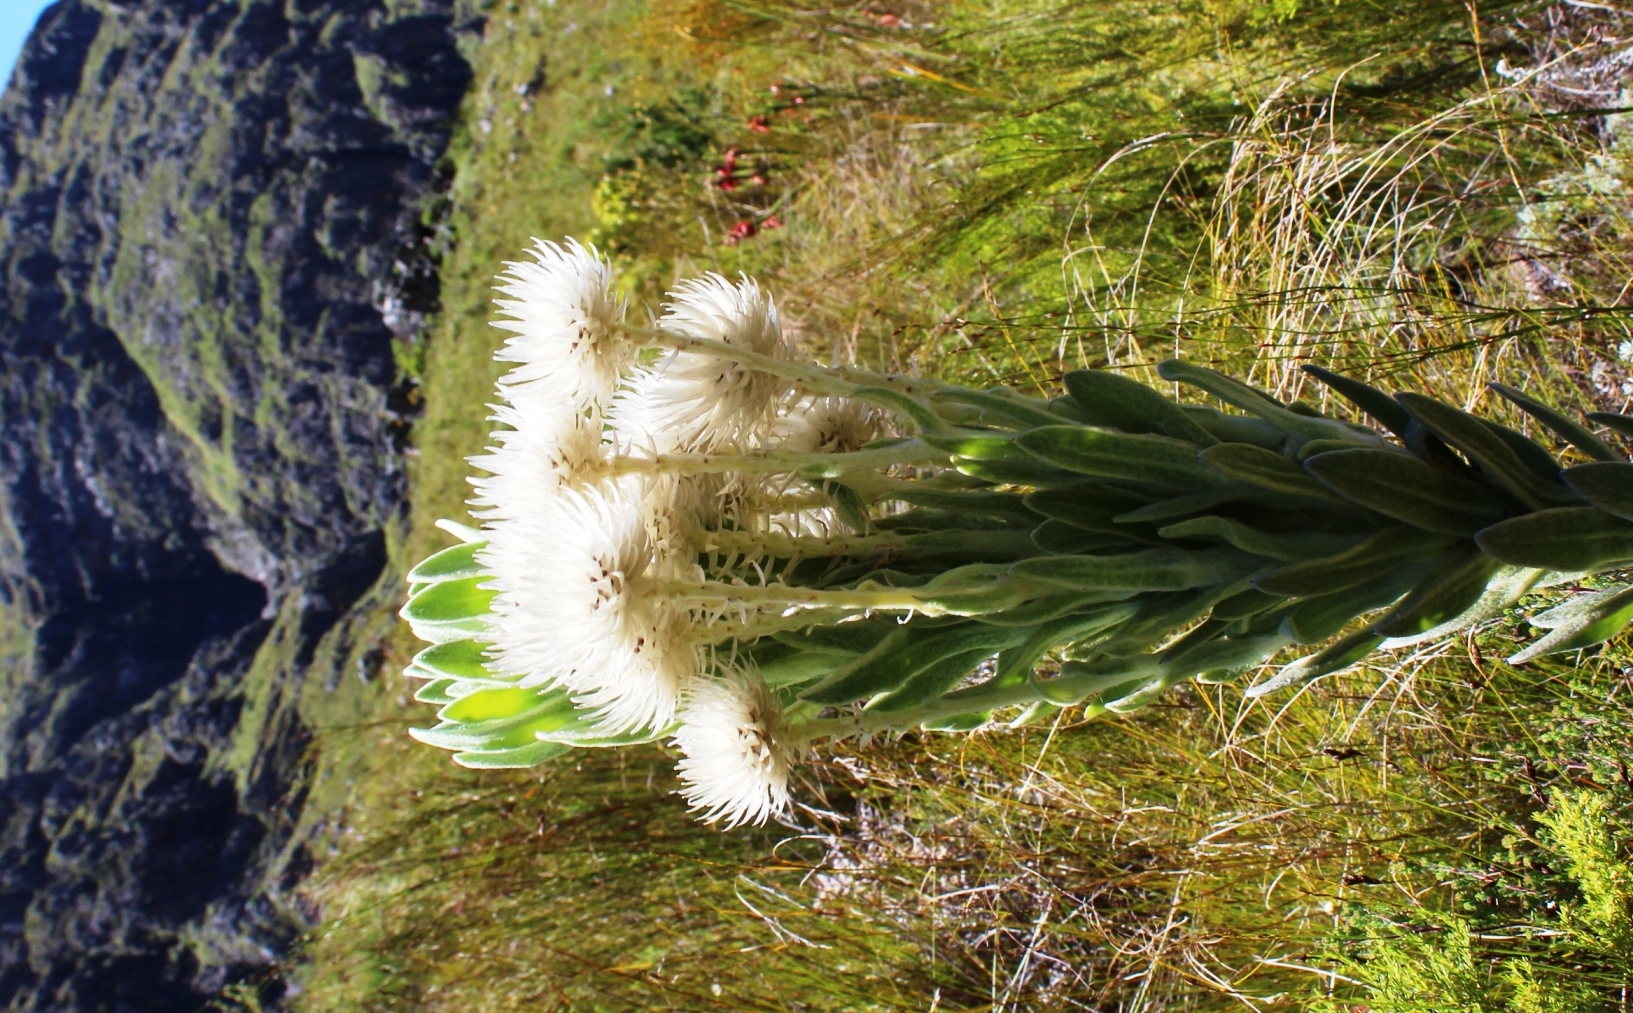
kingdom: Plantae
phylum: Tracheophyta
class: Magnoliopsida
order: Asterales
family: Asteraceae
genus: Syncarpha
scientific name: Syncarpha vestita
